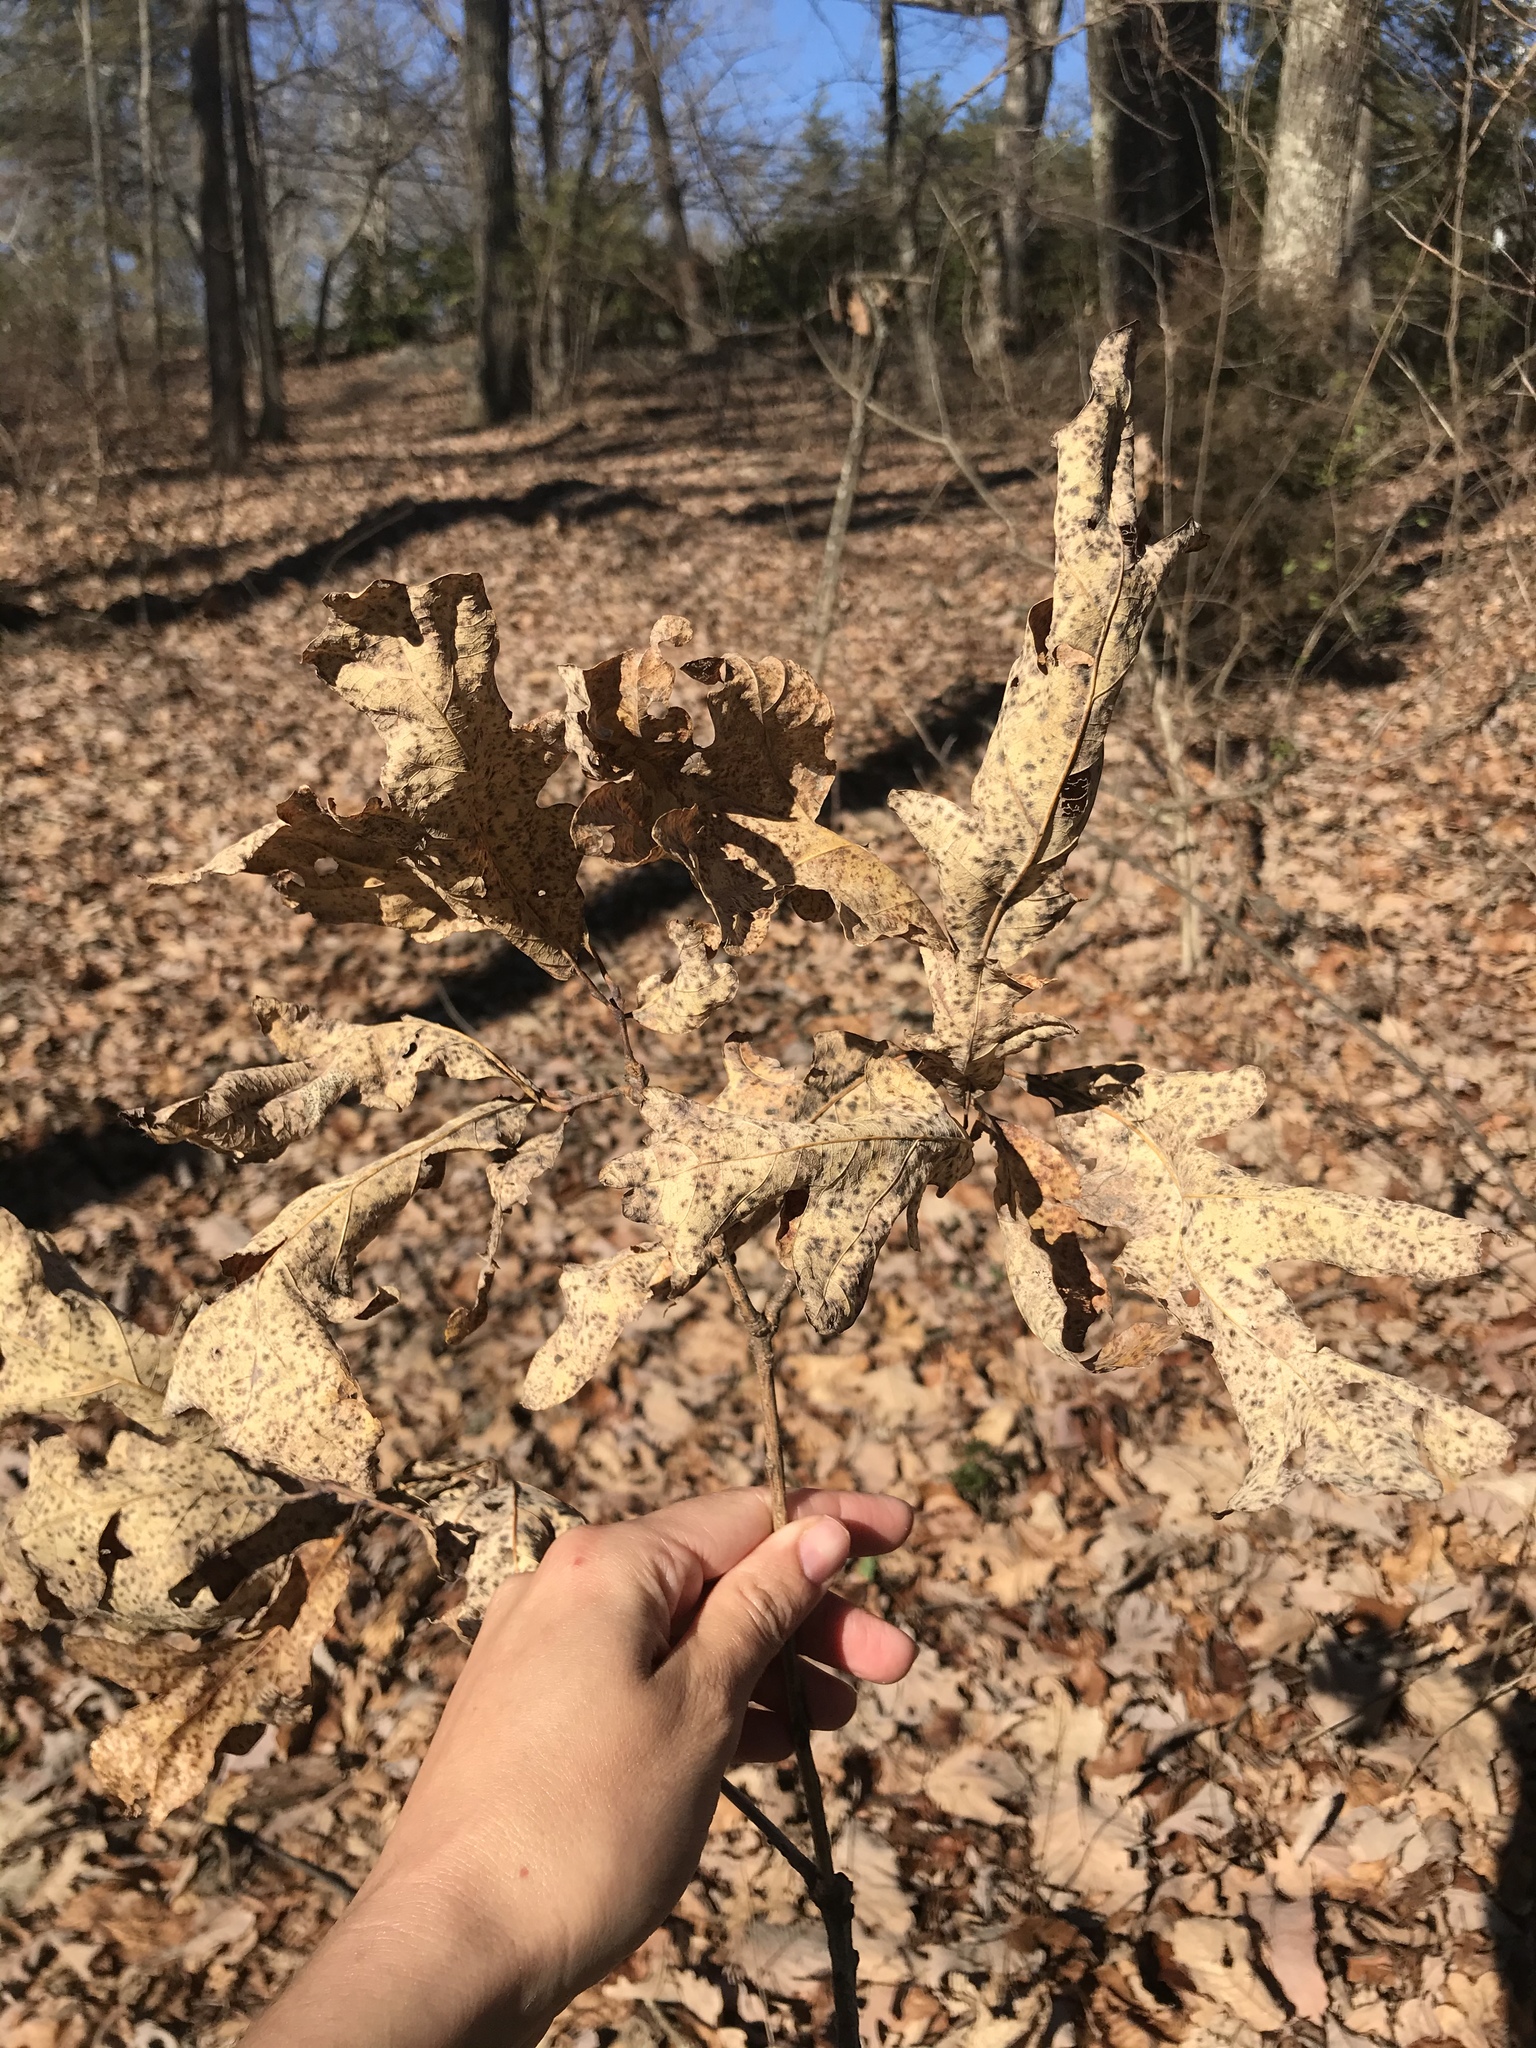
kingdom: Plantae
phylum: Tracheophyta
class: Magnoliopsida
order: Fagales
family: Fagaceae
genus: Quercus
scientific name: Quercus alba
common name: White oak
